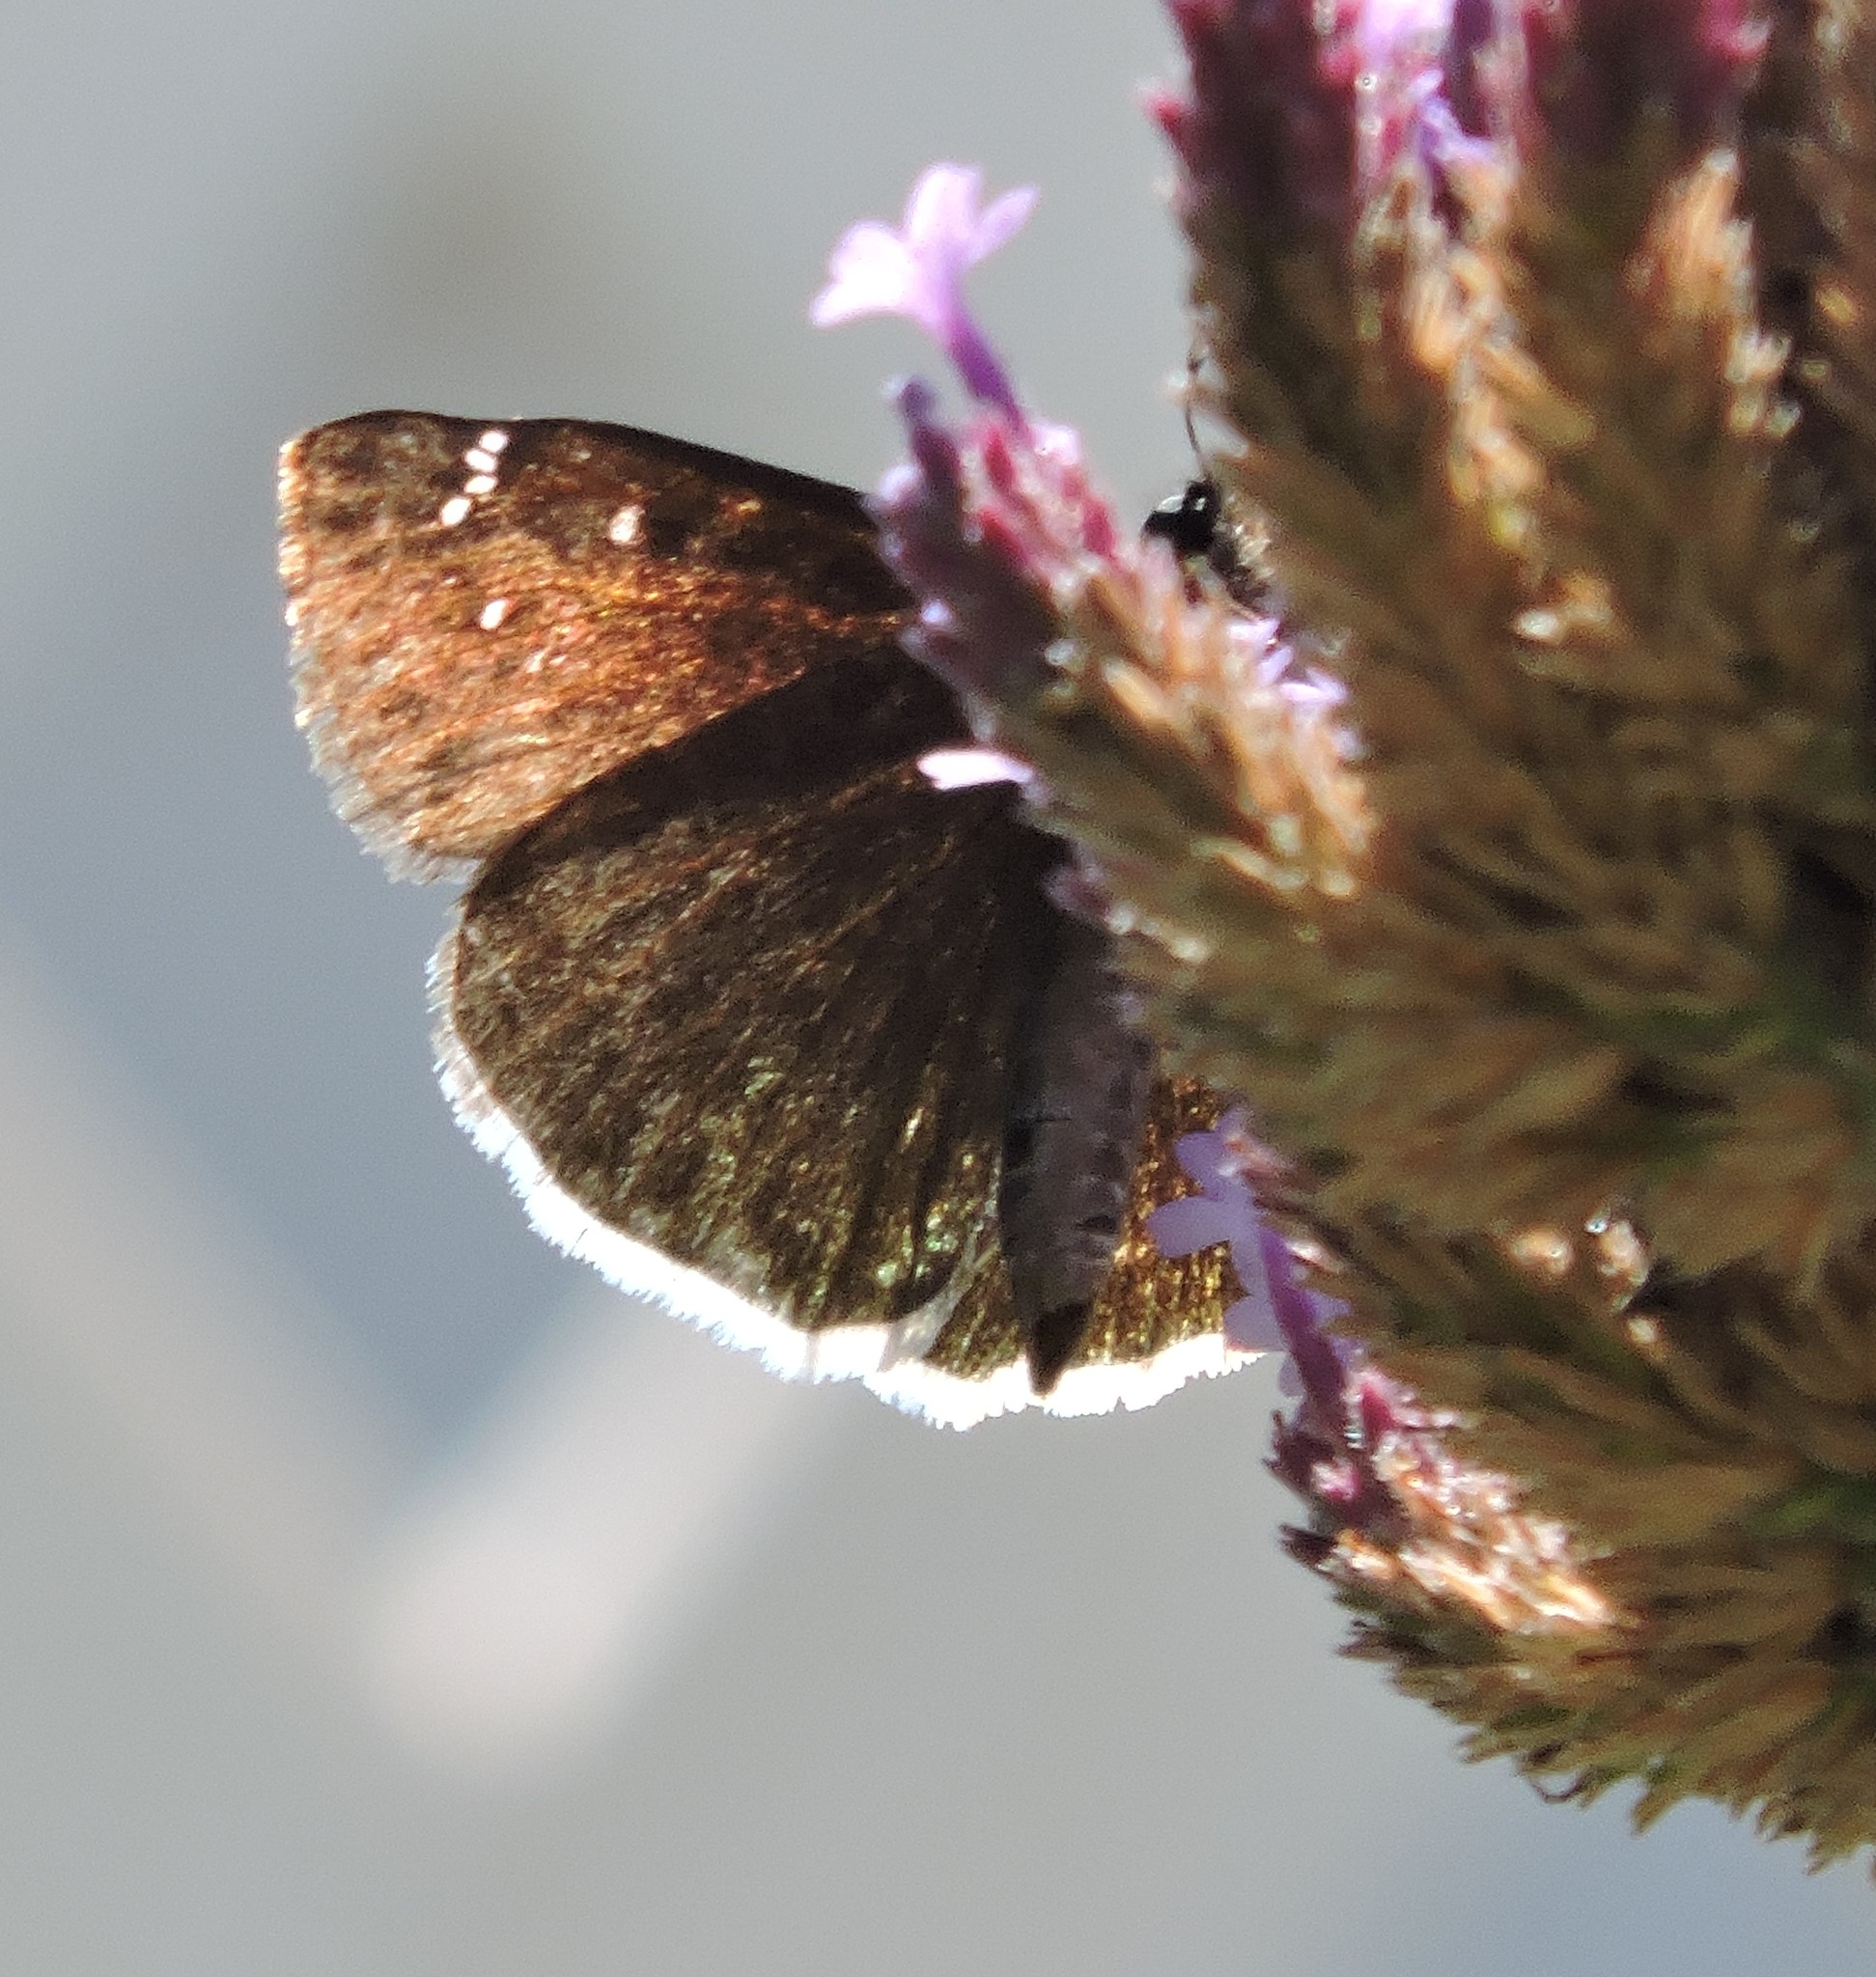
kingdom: Animalia
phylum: Arthropoda
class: Insecta
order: Lepidoptera
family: Hesperiidae
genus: Erynnis
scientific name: Erynnis tristis
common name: Mournful duskywing
